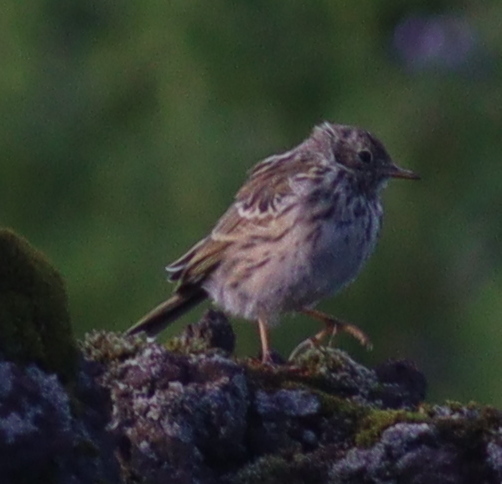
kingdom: Animalia
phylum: Chordata
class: Aves
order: Passeriformes
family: Motacillidae
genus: Anthus
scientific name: Anthus pratensis
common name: Meadow pipit
